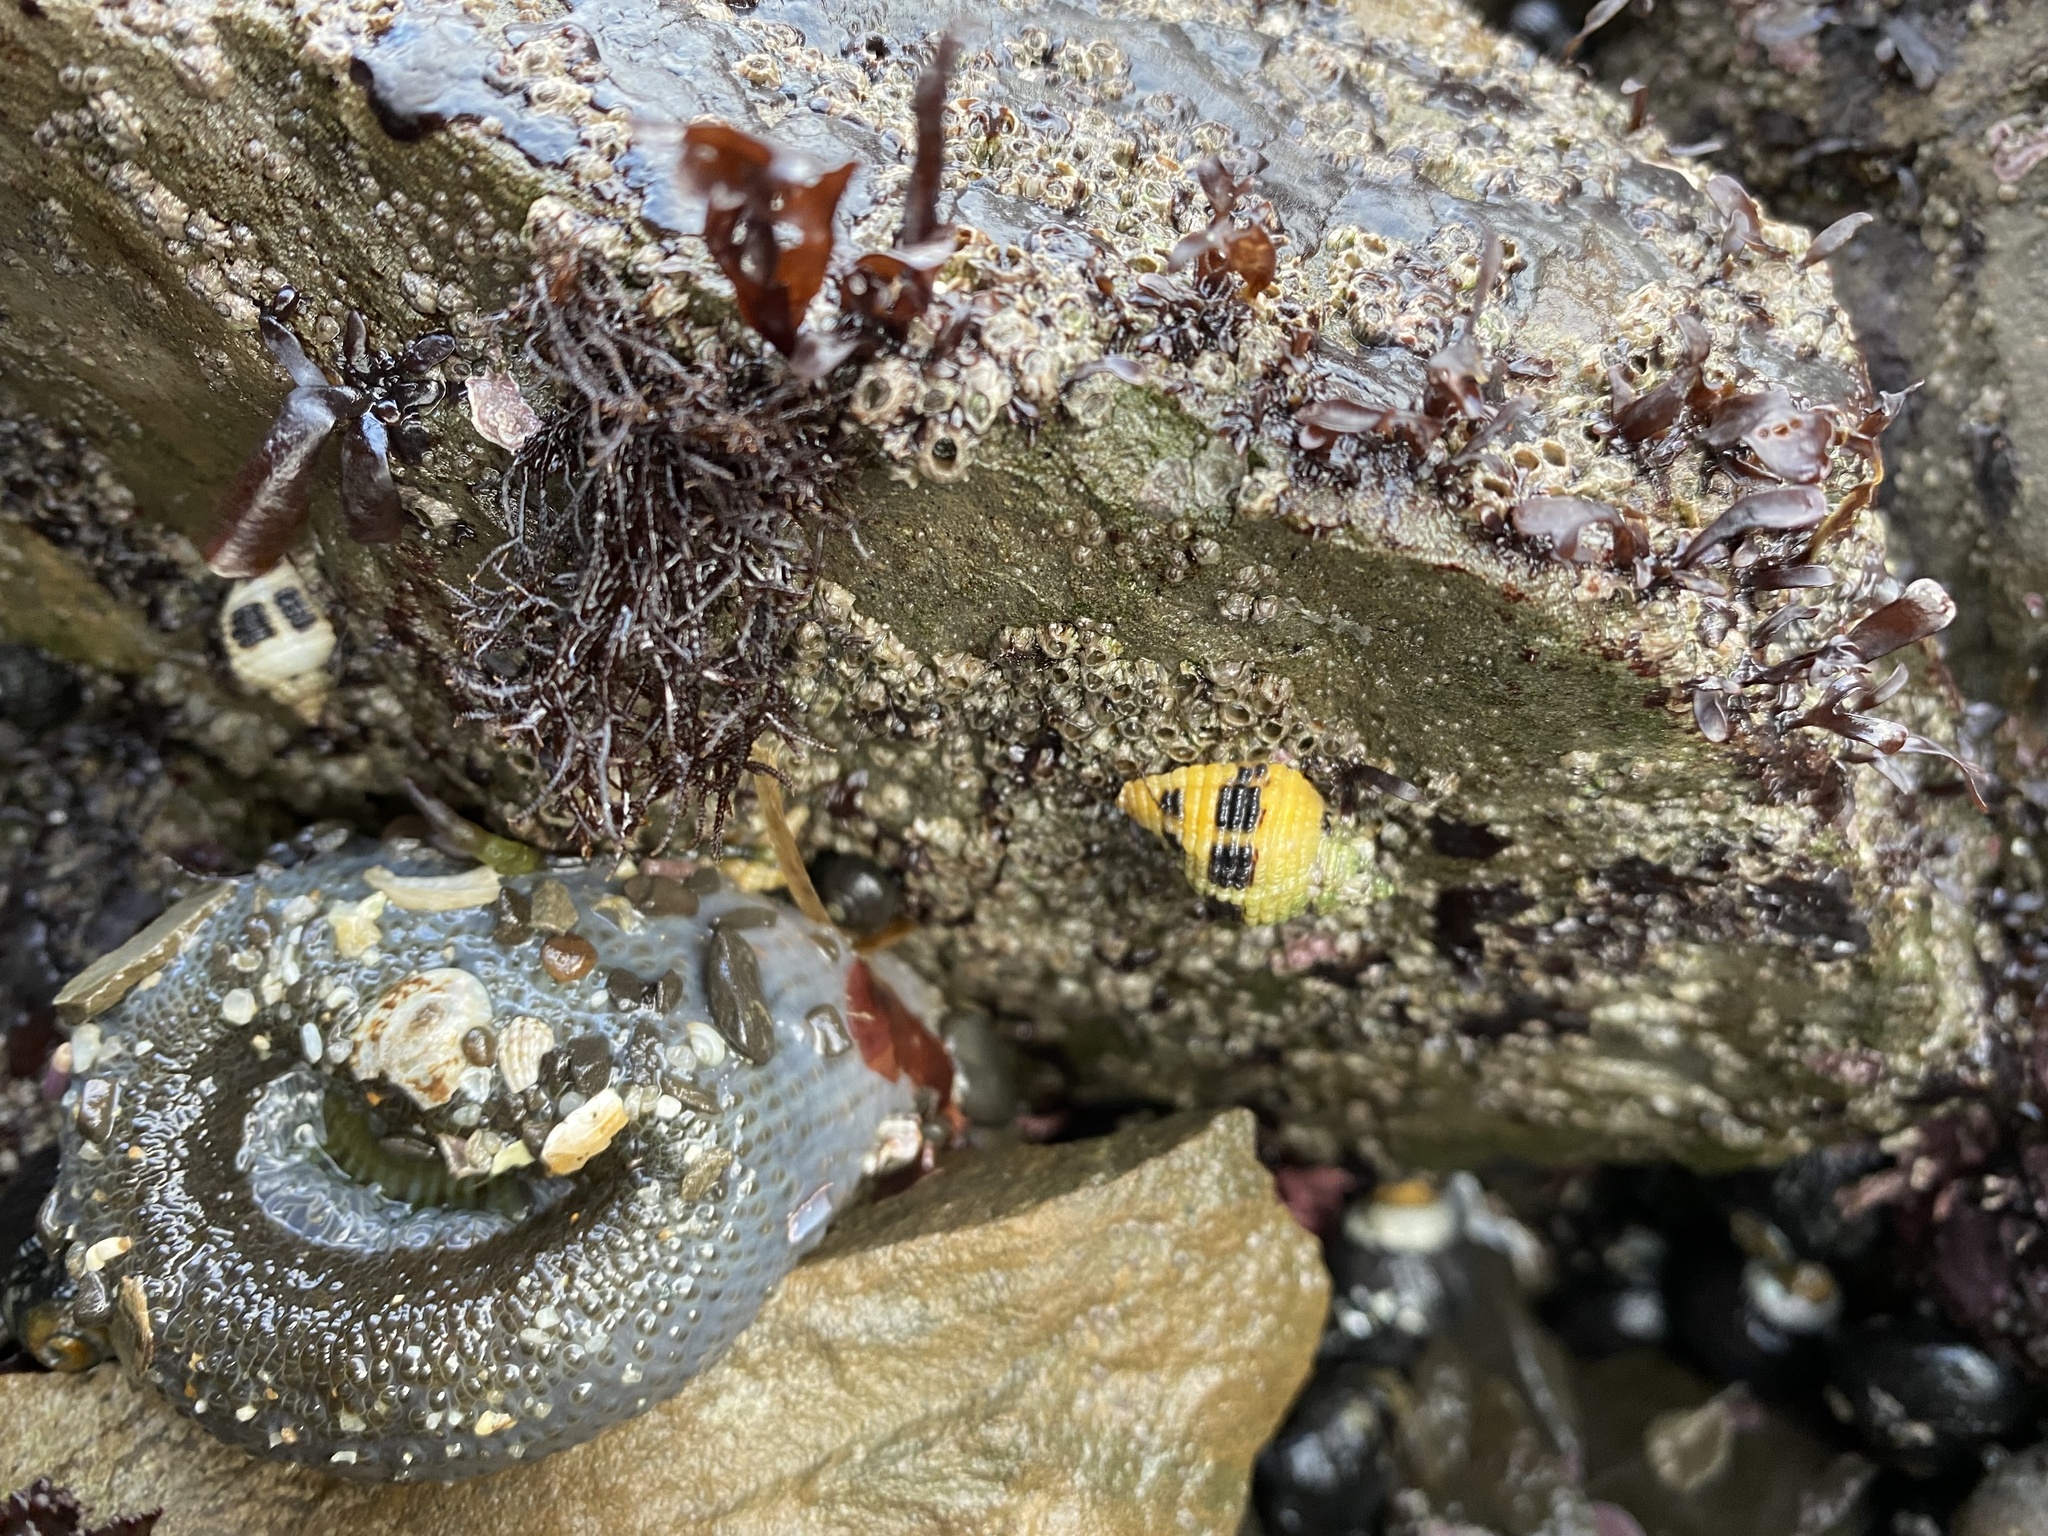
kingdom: Animalia
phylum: Mollusca
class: Gastropoda
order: Neogastropoda
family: Muricidae
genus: Paciocinebrina
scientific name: Paciocinebrina circumtexta
